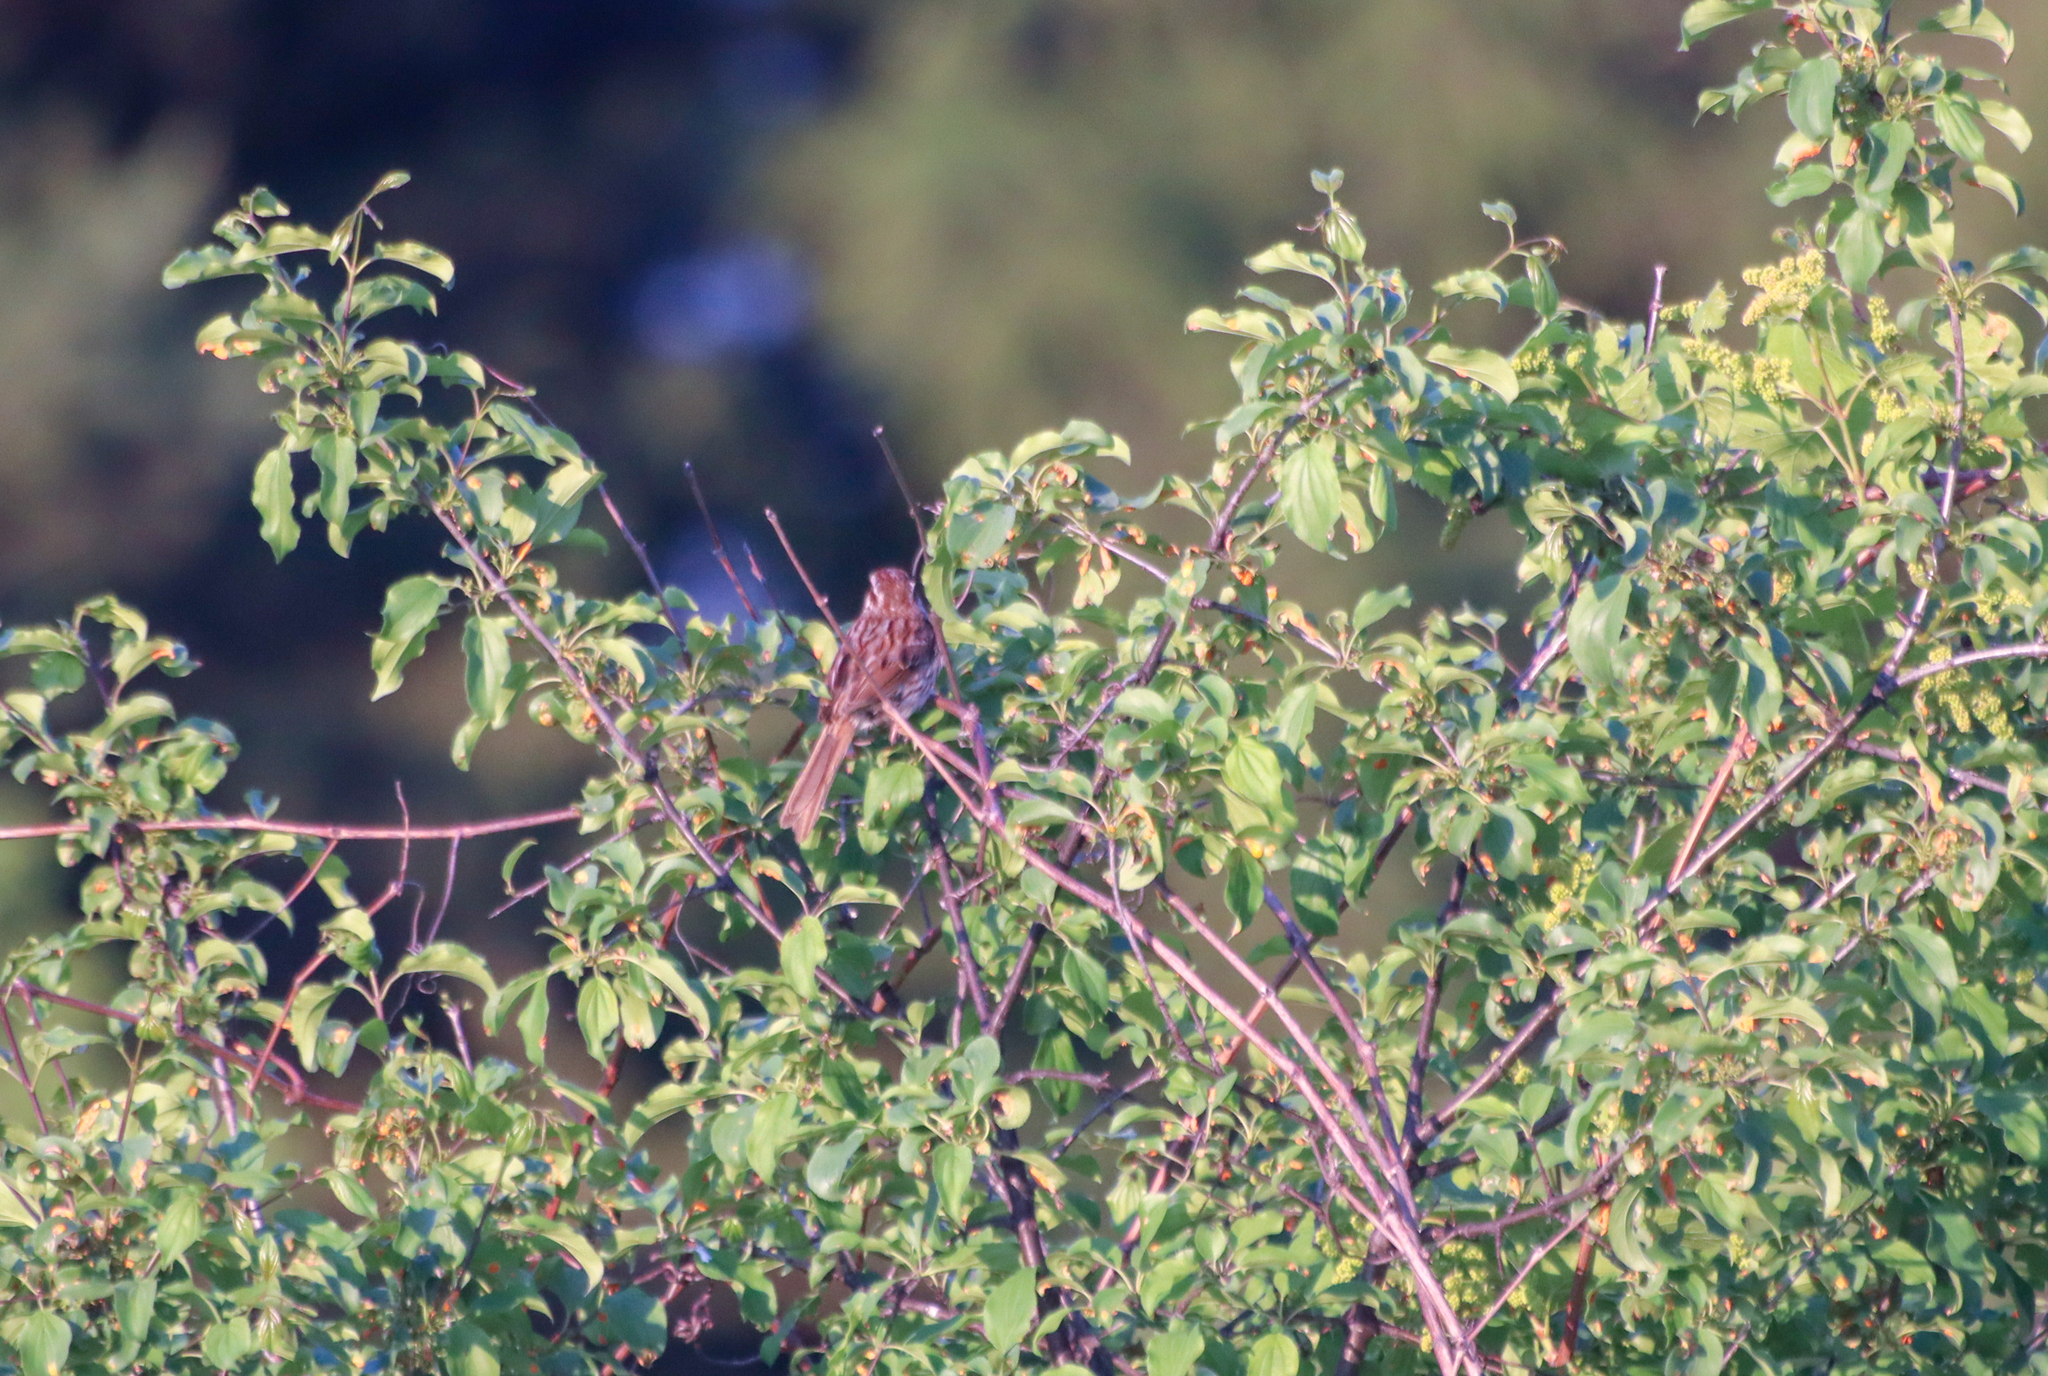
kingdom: Animalia
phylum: Chordata
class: Aves
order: Passeriformes
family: Passerellidae
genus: Melospiza
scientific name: Melospiza melodia
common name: Song sparrow
